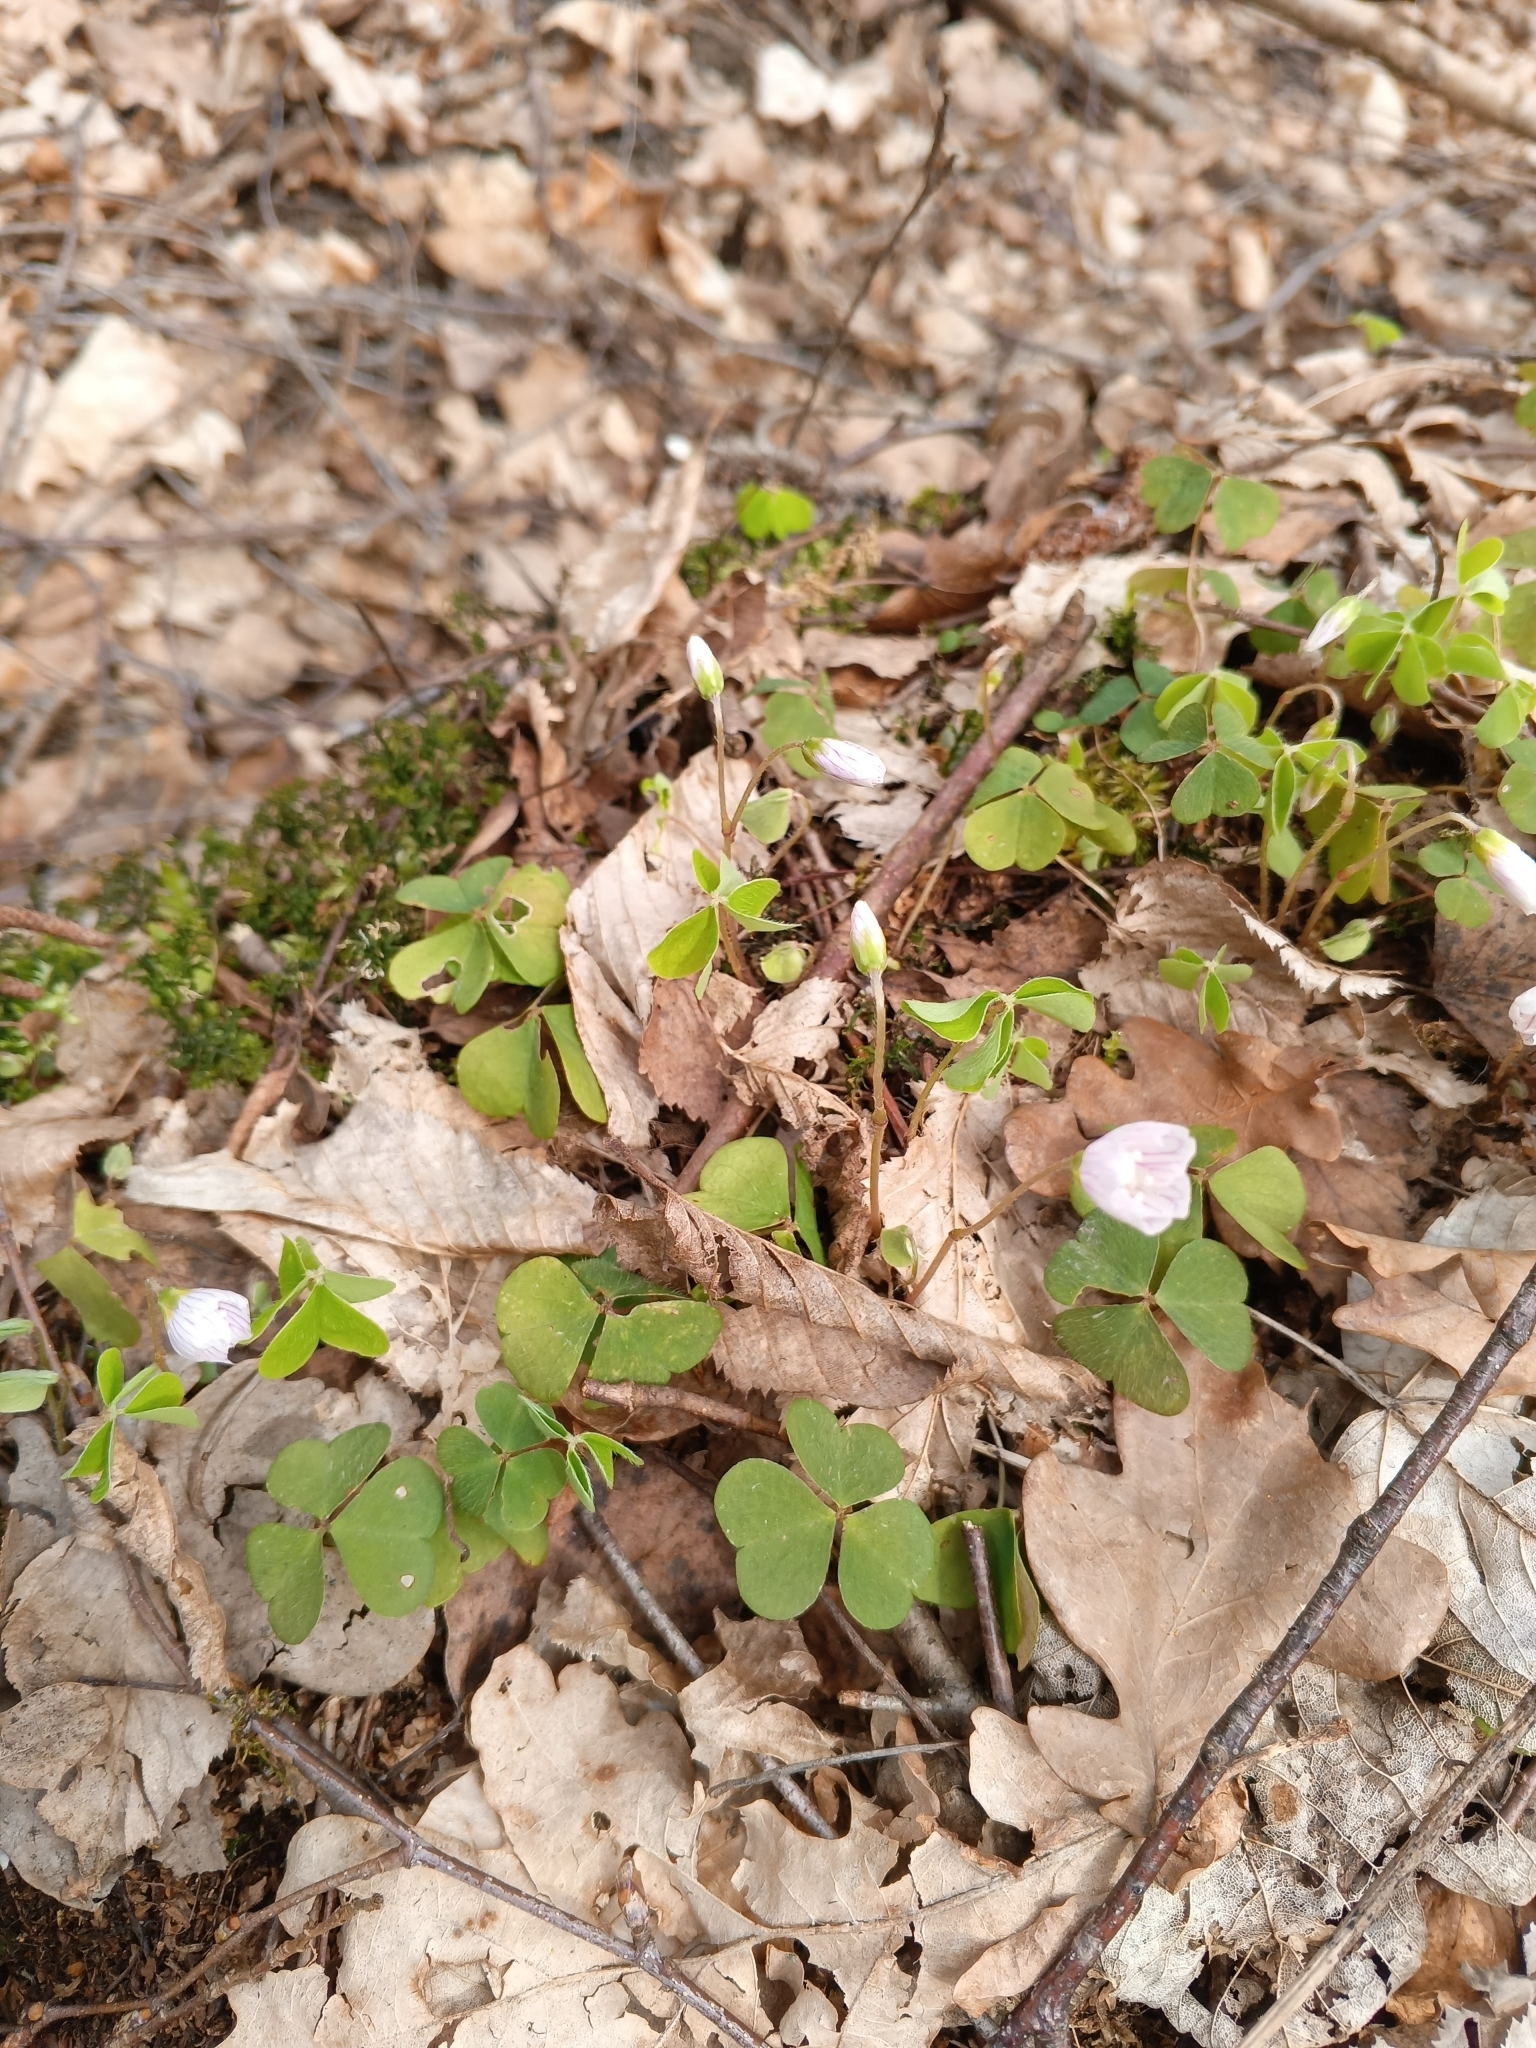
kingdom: Plantae
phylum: Tracheophyta
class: Magnoliopsida
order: Oxalidales
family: Oxalidaceae
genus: Oxalis
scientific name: Oxalis acetosella
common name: Wood-sorrel
